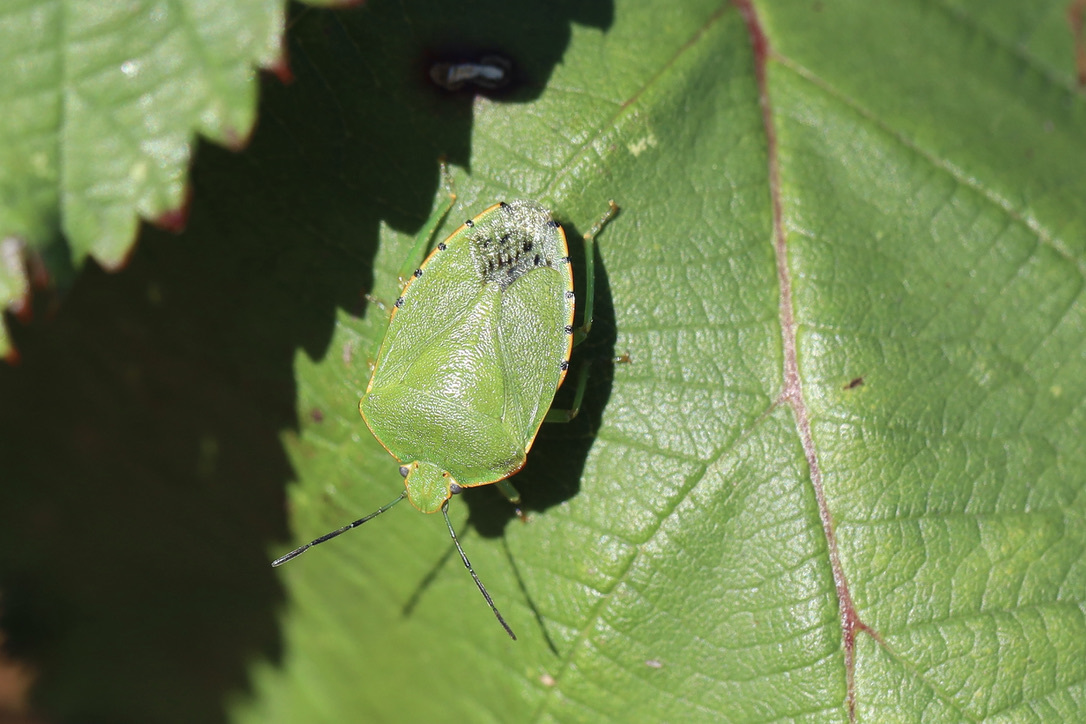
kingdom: Animalia
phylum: Arthropoda
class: Insecta
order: Hemiptera
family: Pentatomidae
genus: Chinavia
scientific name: Chinavia hilaris
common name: Green stink bug
